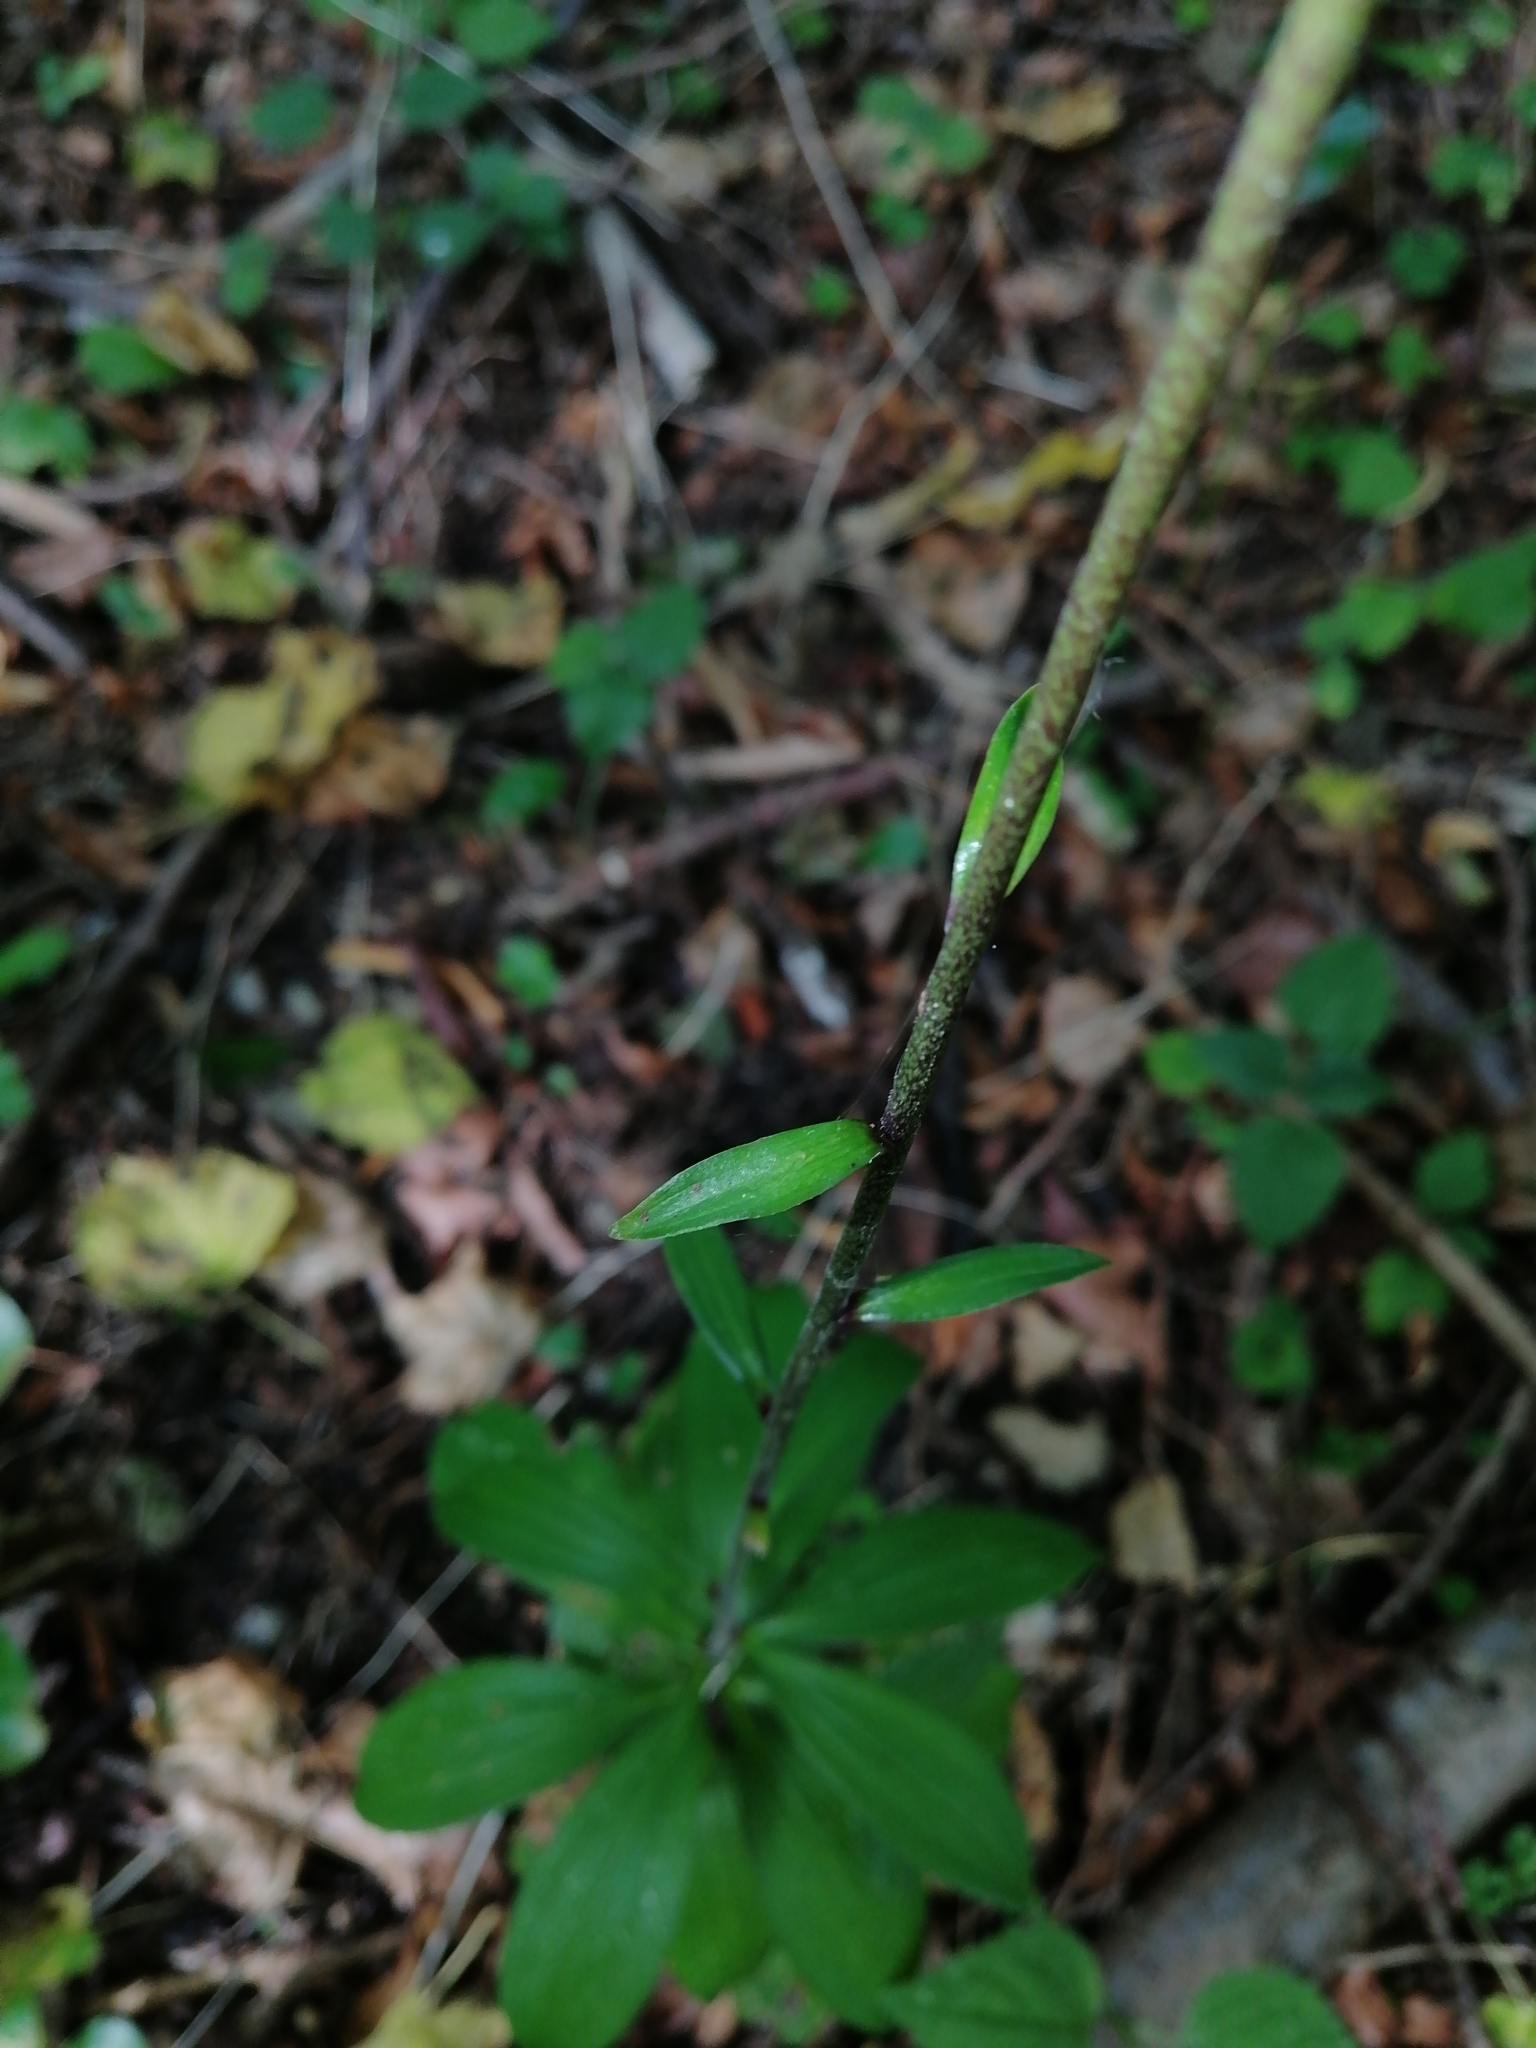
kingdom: Plantae
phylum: Tracheophyta
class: Liliopsida
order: Liliales
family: Liliaceae
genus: Lilium
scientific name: Lilium martagon
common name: Martagon lily
